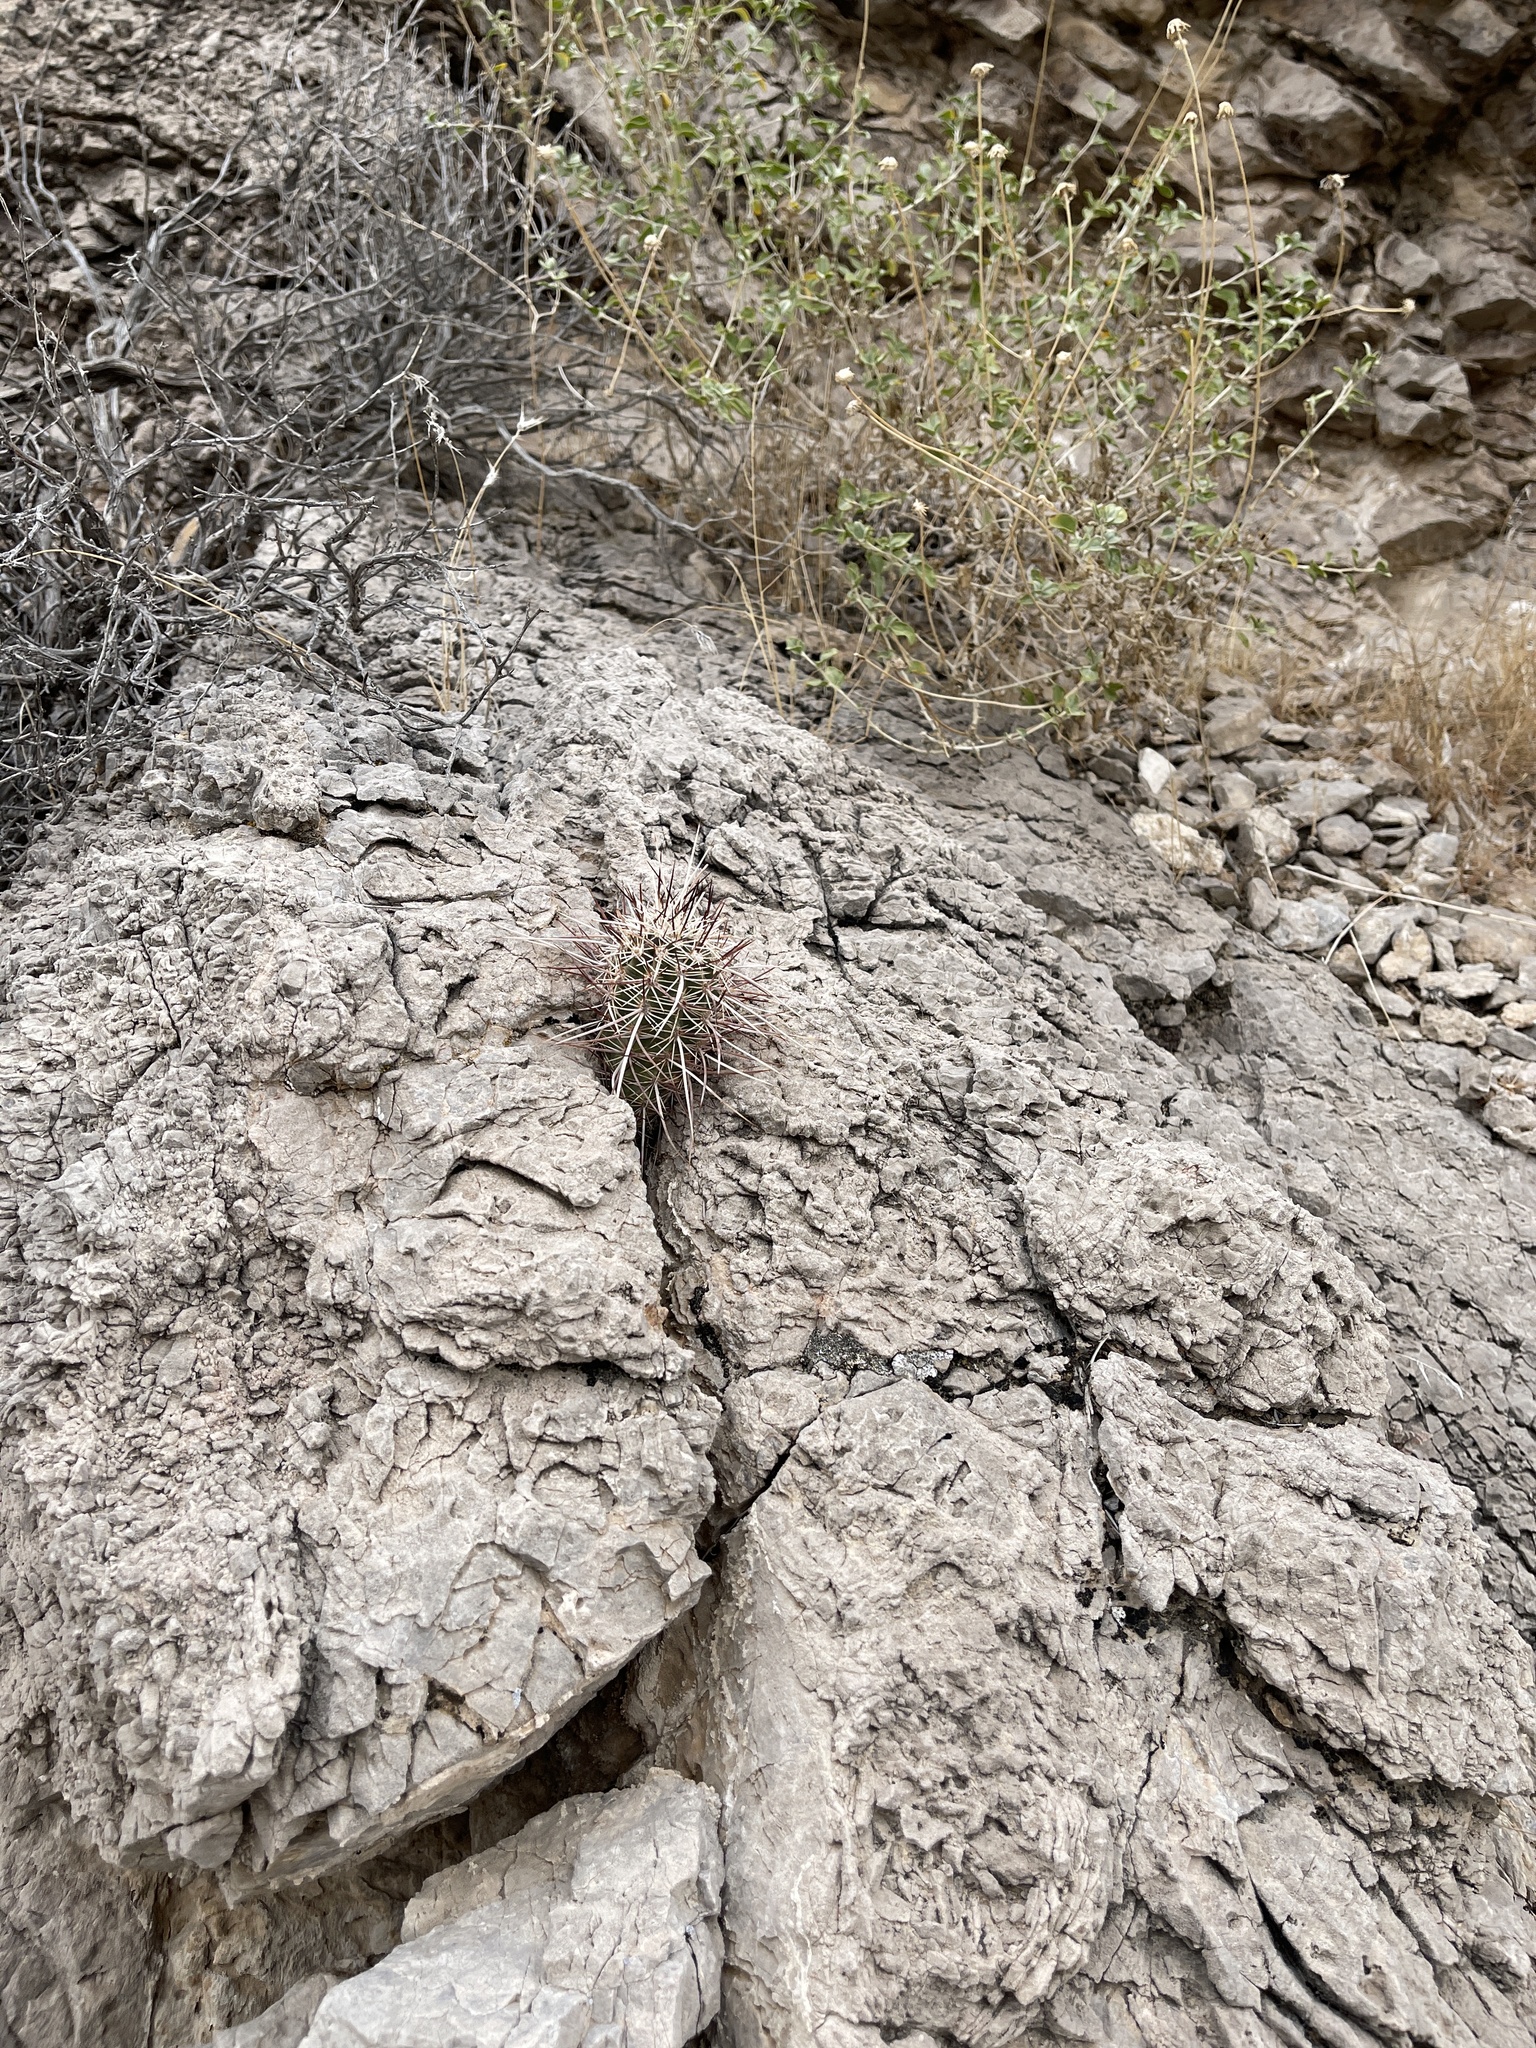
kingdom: Plantae
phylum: Tracheophyta
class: Magnoliopsida
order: Caryophyllales
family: Cactaceae
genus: Echinocereus
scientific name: Echinocereus engelmannii
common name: Engelmann's hedgehog cactus
